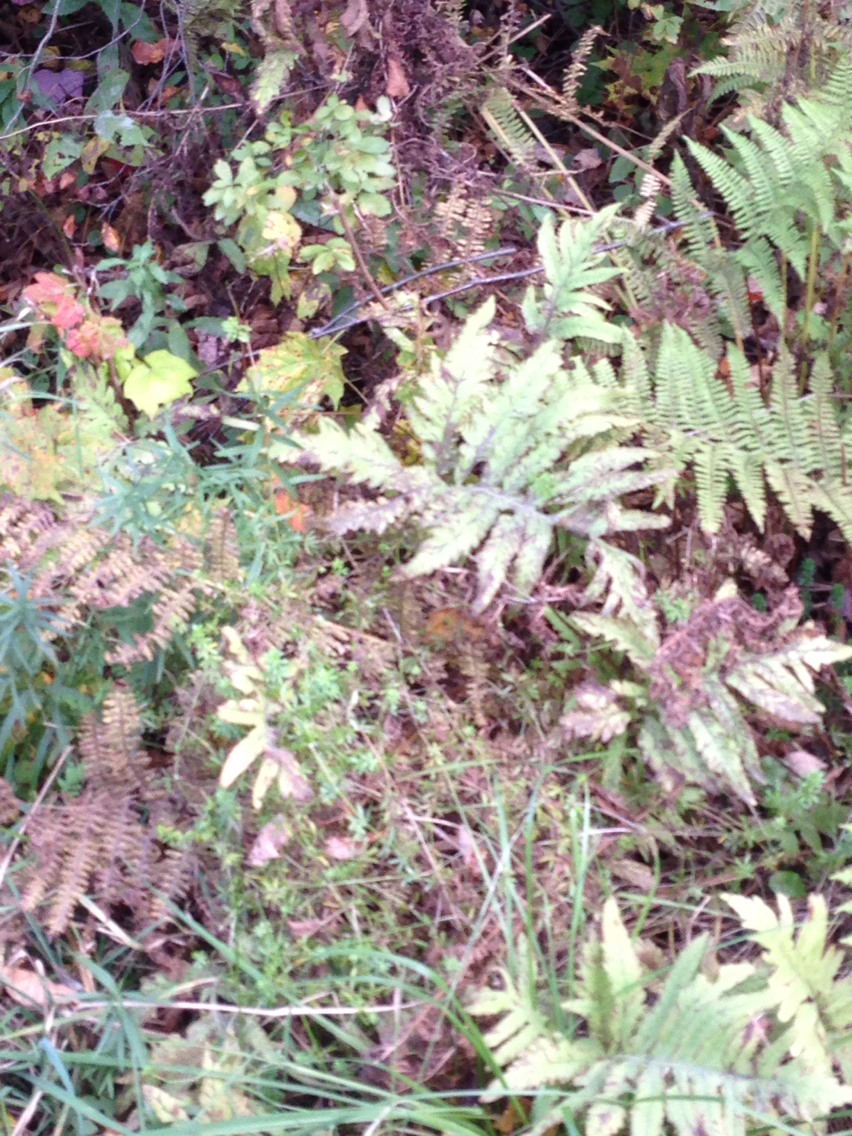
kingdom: Plantae
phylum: Tracheophyta
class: Polypodiopsida
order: Polypodiales
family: Onocleaceae
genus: Onoclea
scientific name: Onoclea sensibilis
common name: Sensitive fern
